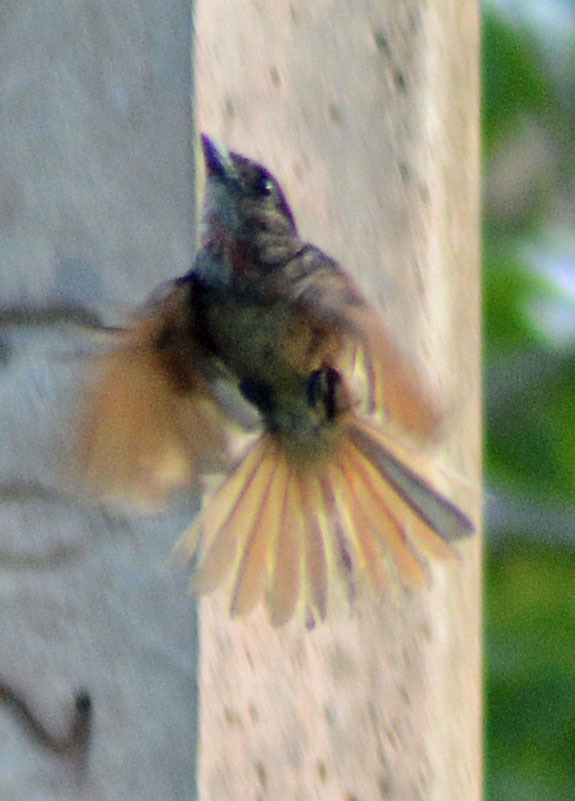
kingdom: Animalia
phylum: Chordata
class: Aves
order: Passeriformes
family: Cotingidae
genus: Pachyramphus
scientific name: Pachyramphus aglaiae
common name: Rose-throated becard
